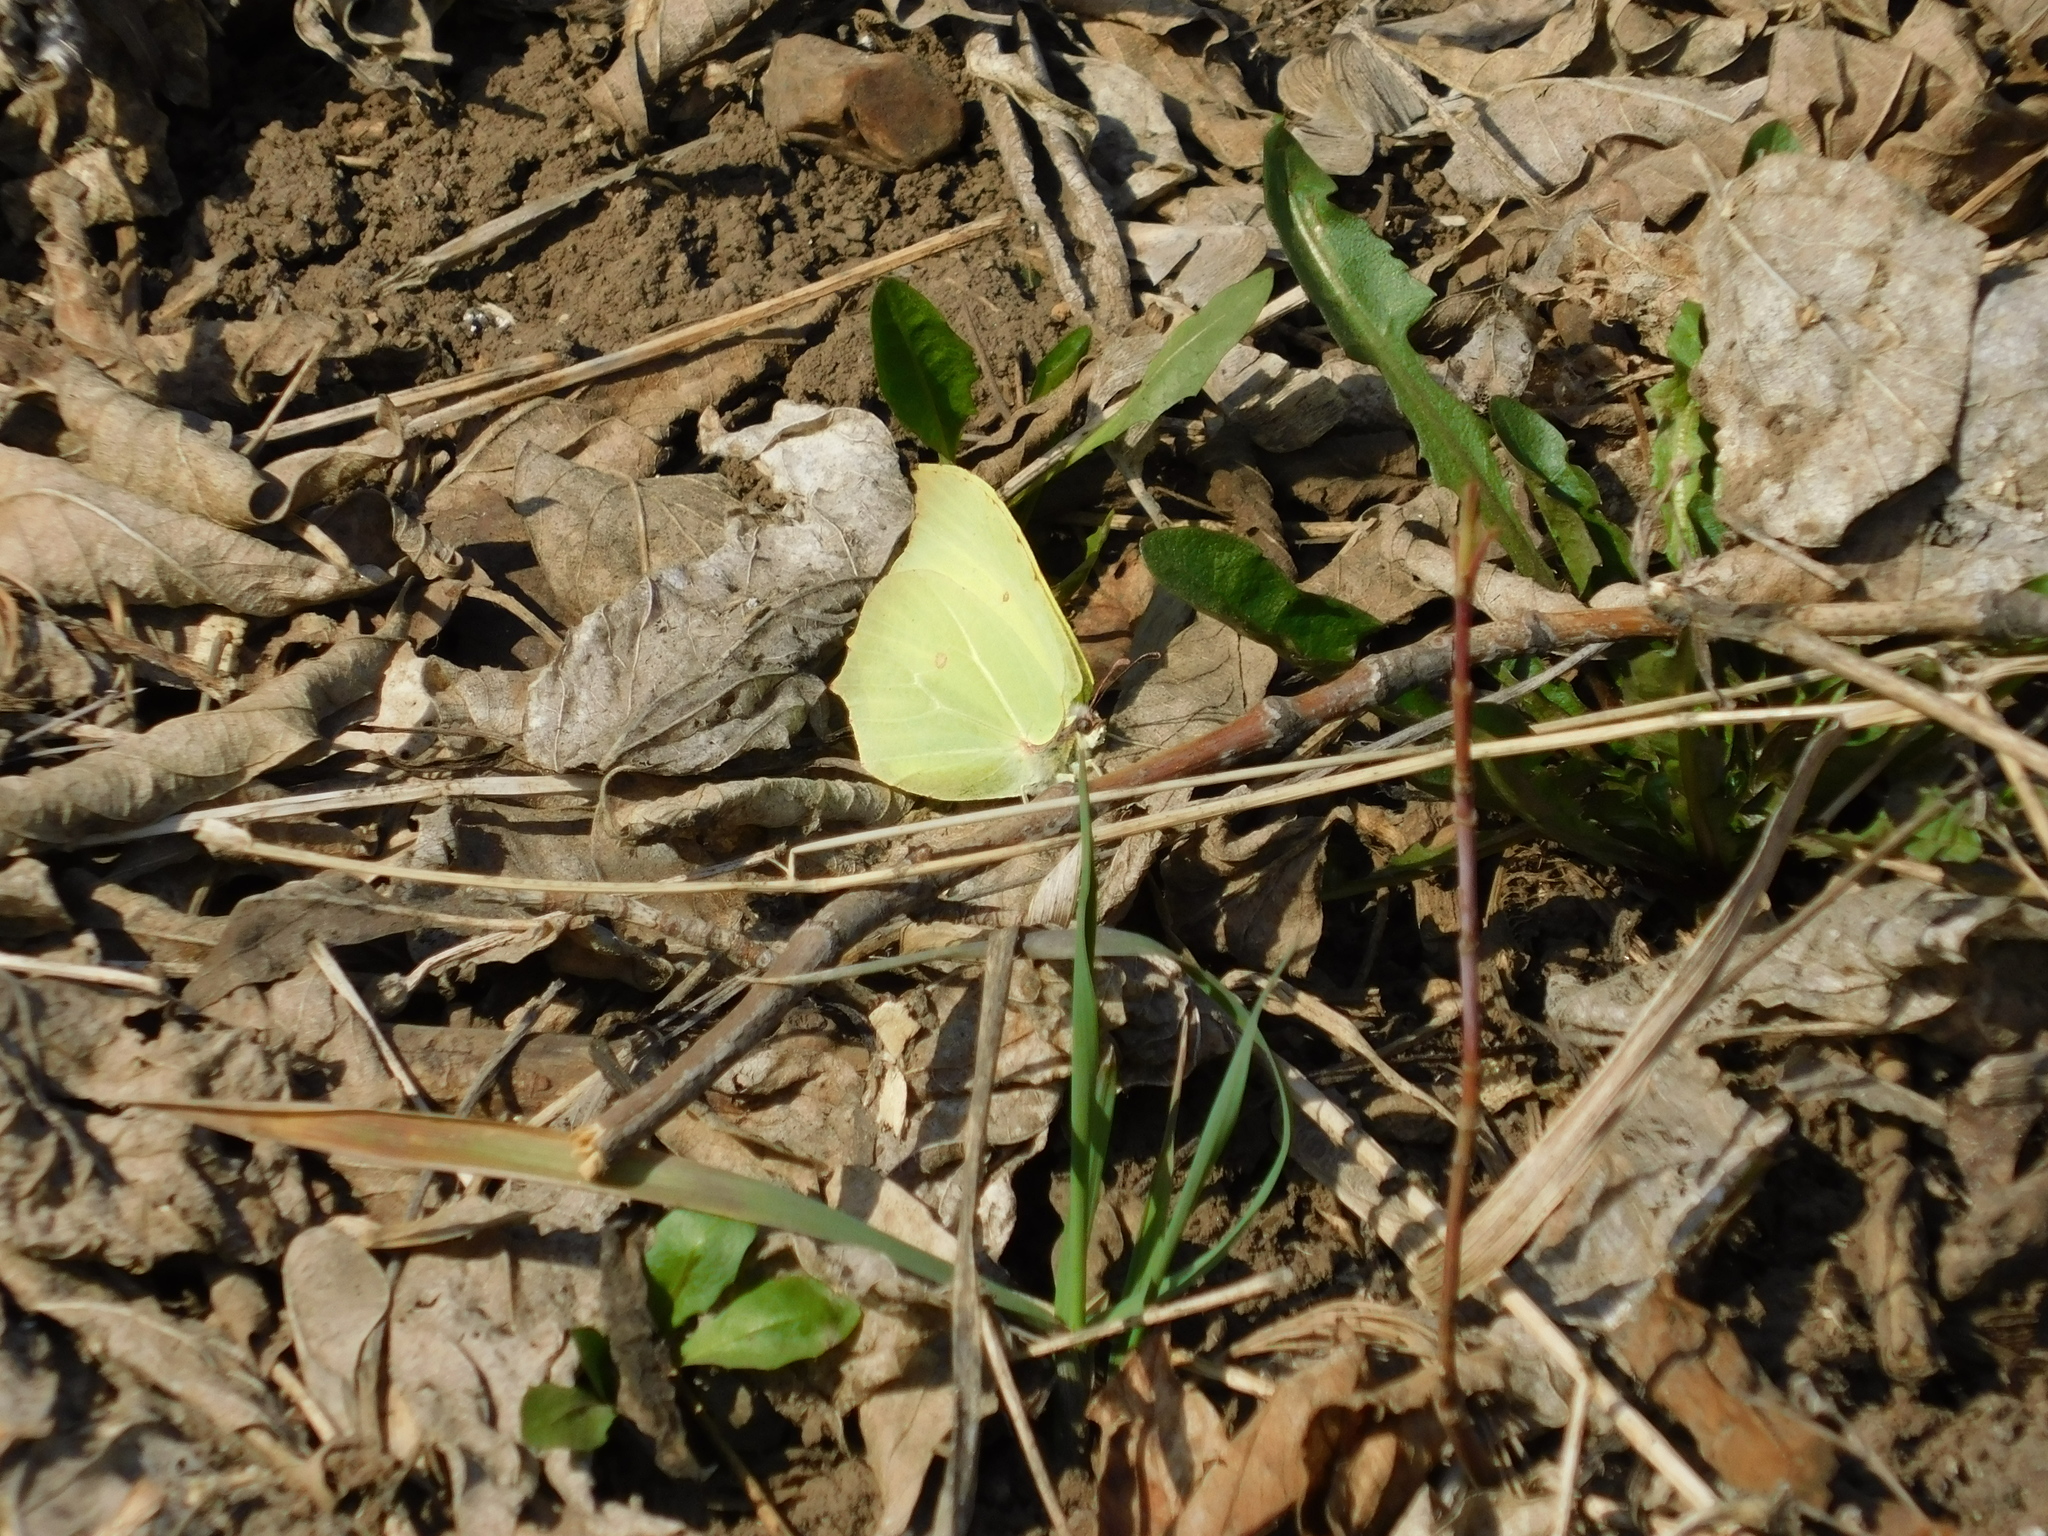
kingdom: Animalia
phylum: Arthropoda
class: Insecta
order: Lepidoptera
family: Pieridae
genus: Gonepteryx
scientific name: Gonepteryx rhamni
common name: Brimstone
